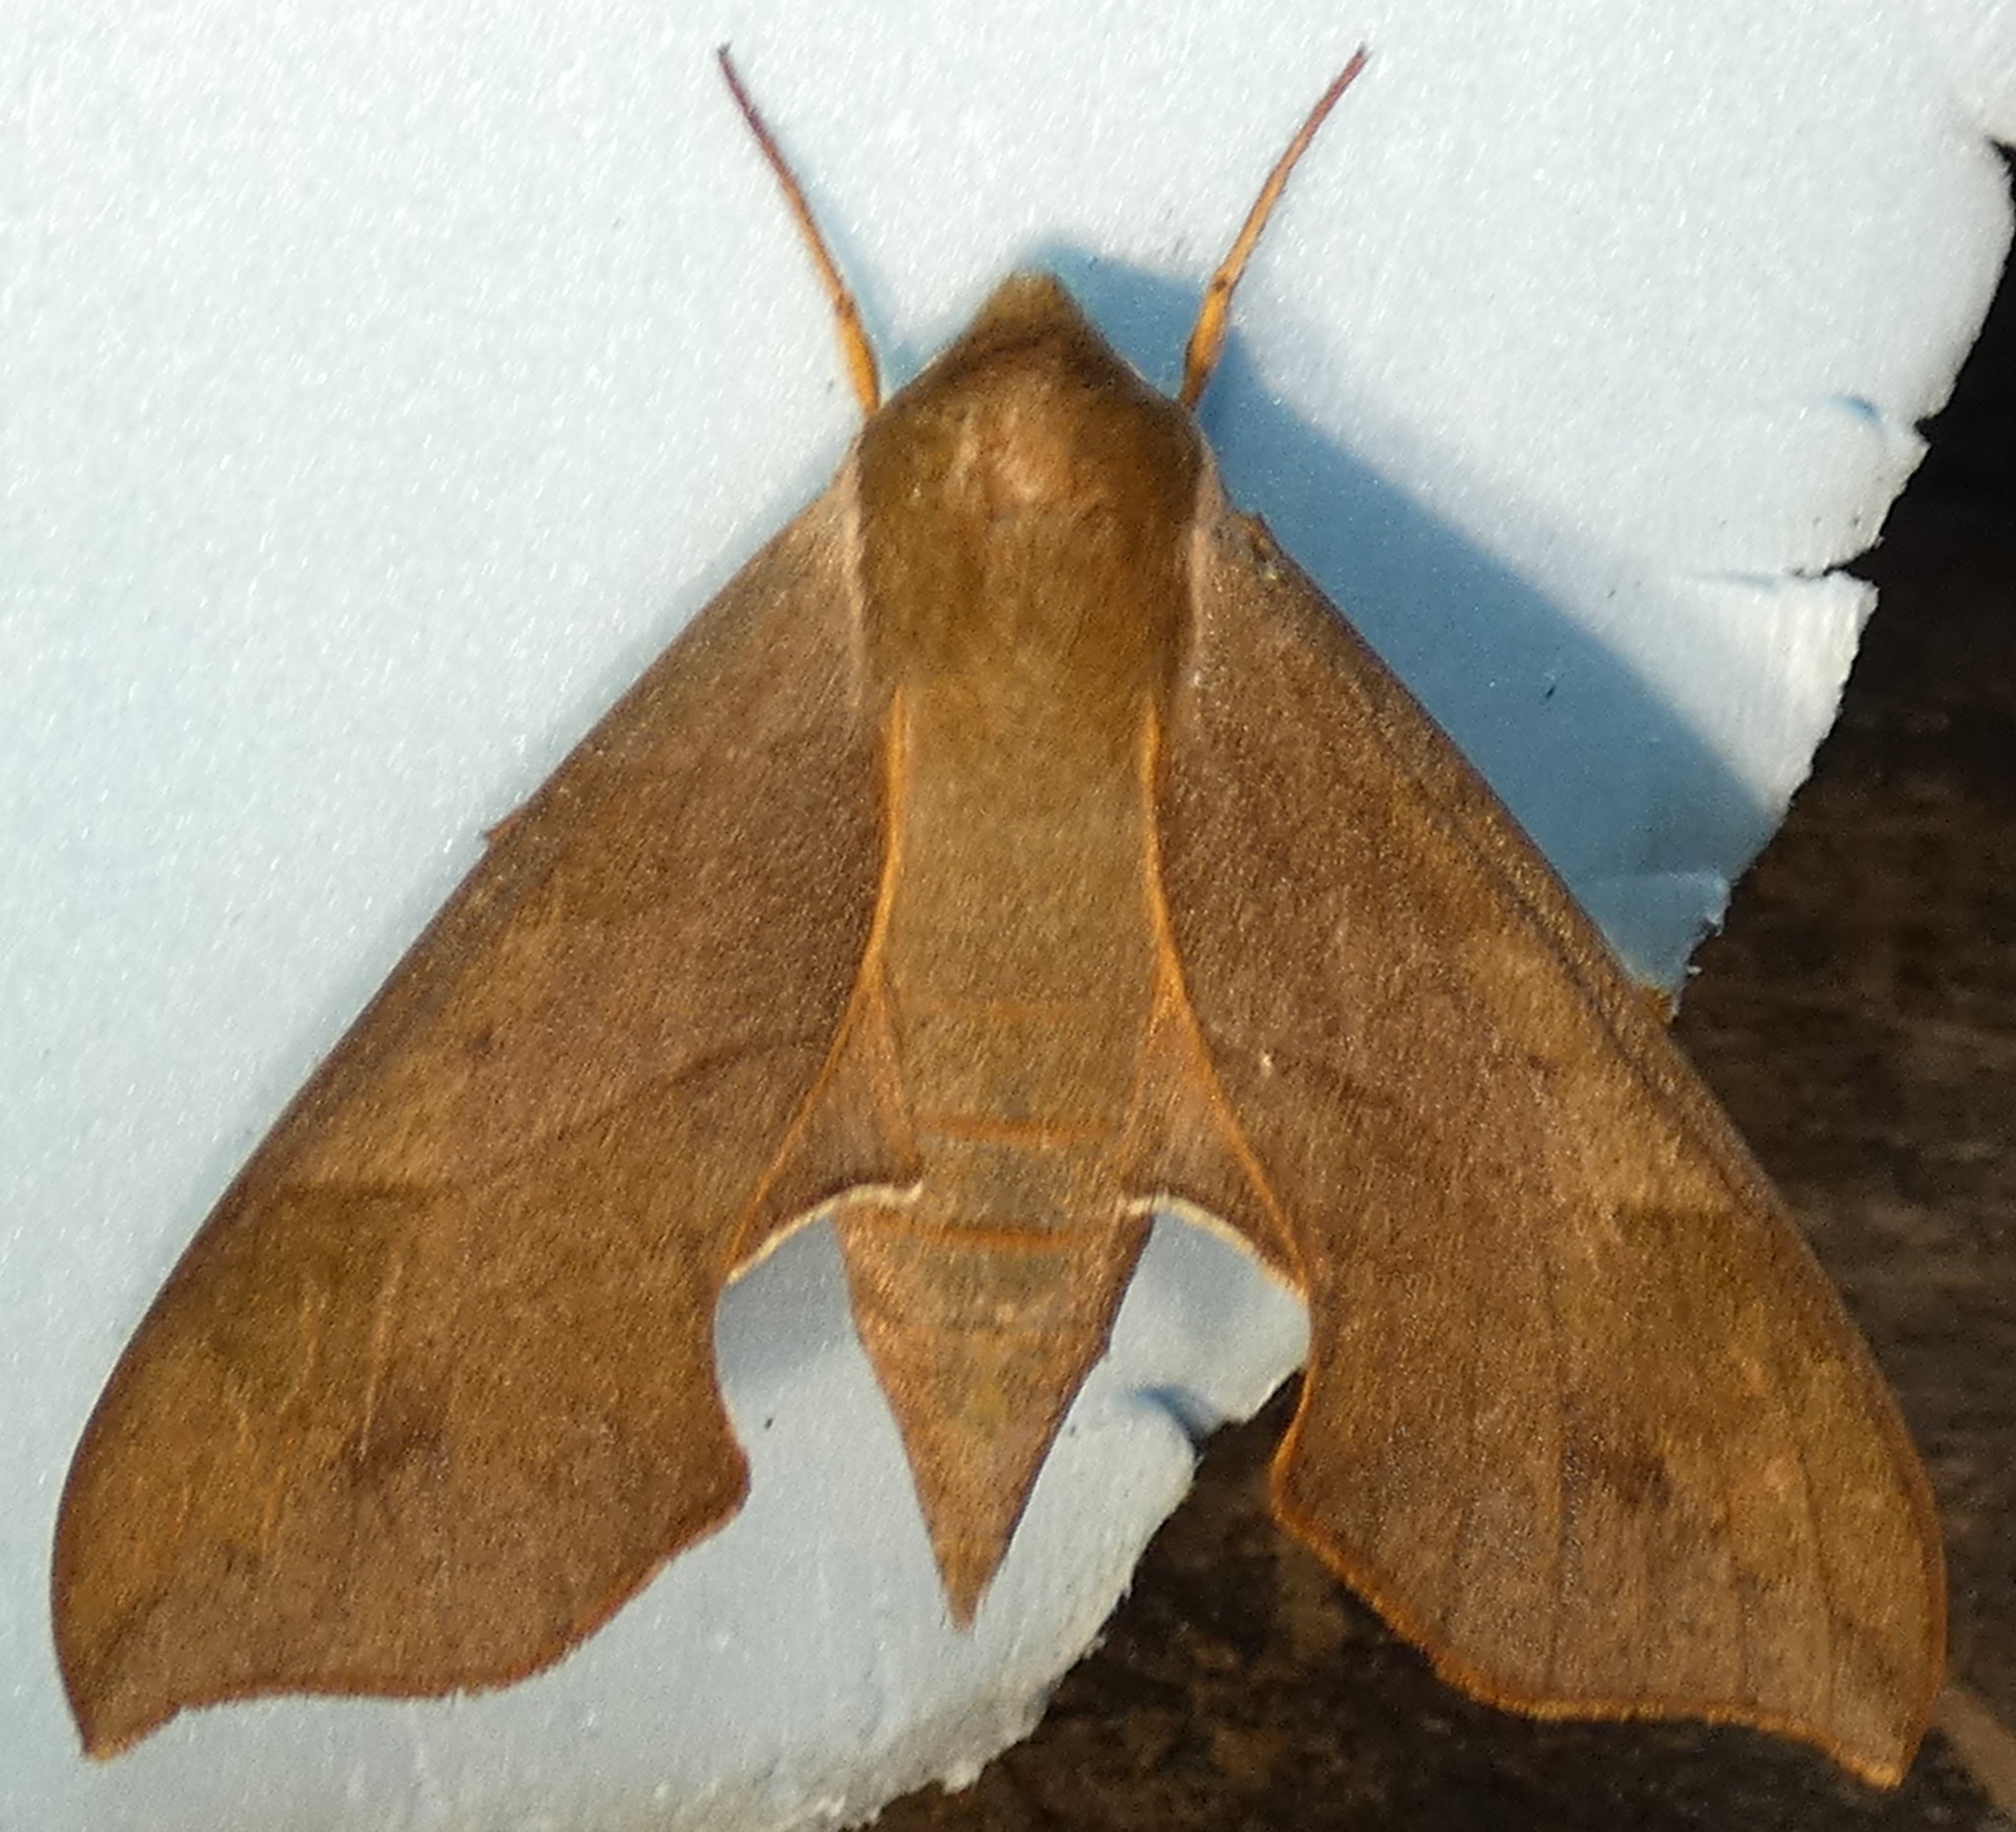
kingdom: Animalia
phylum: Arthropoda
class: Insecta
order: Lepidoptera
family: Sphingidae
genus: Darapsa
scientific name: Darapsa myron
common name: Hog sphinx
